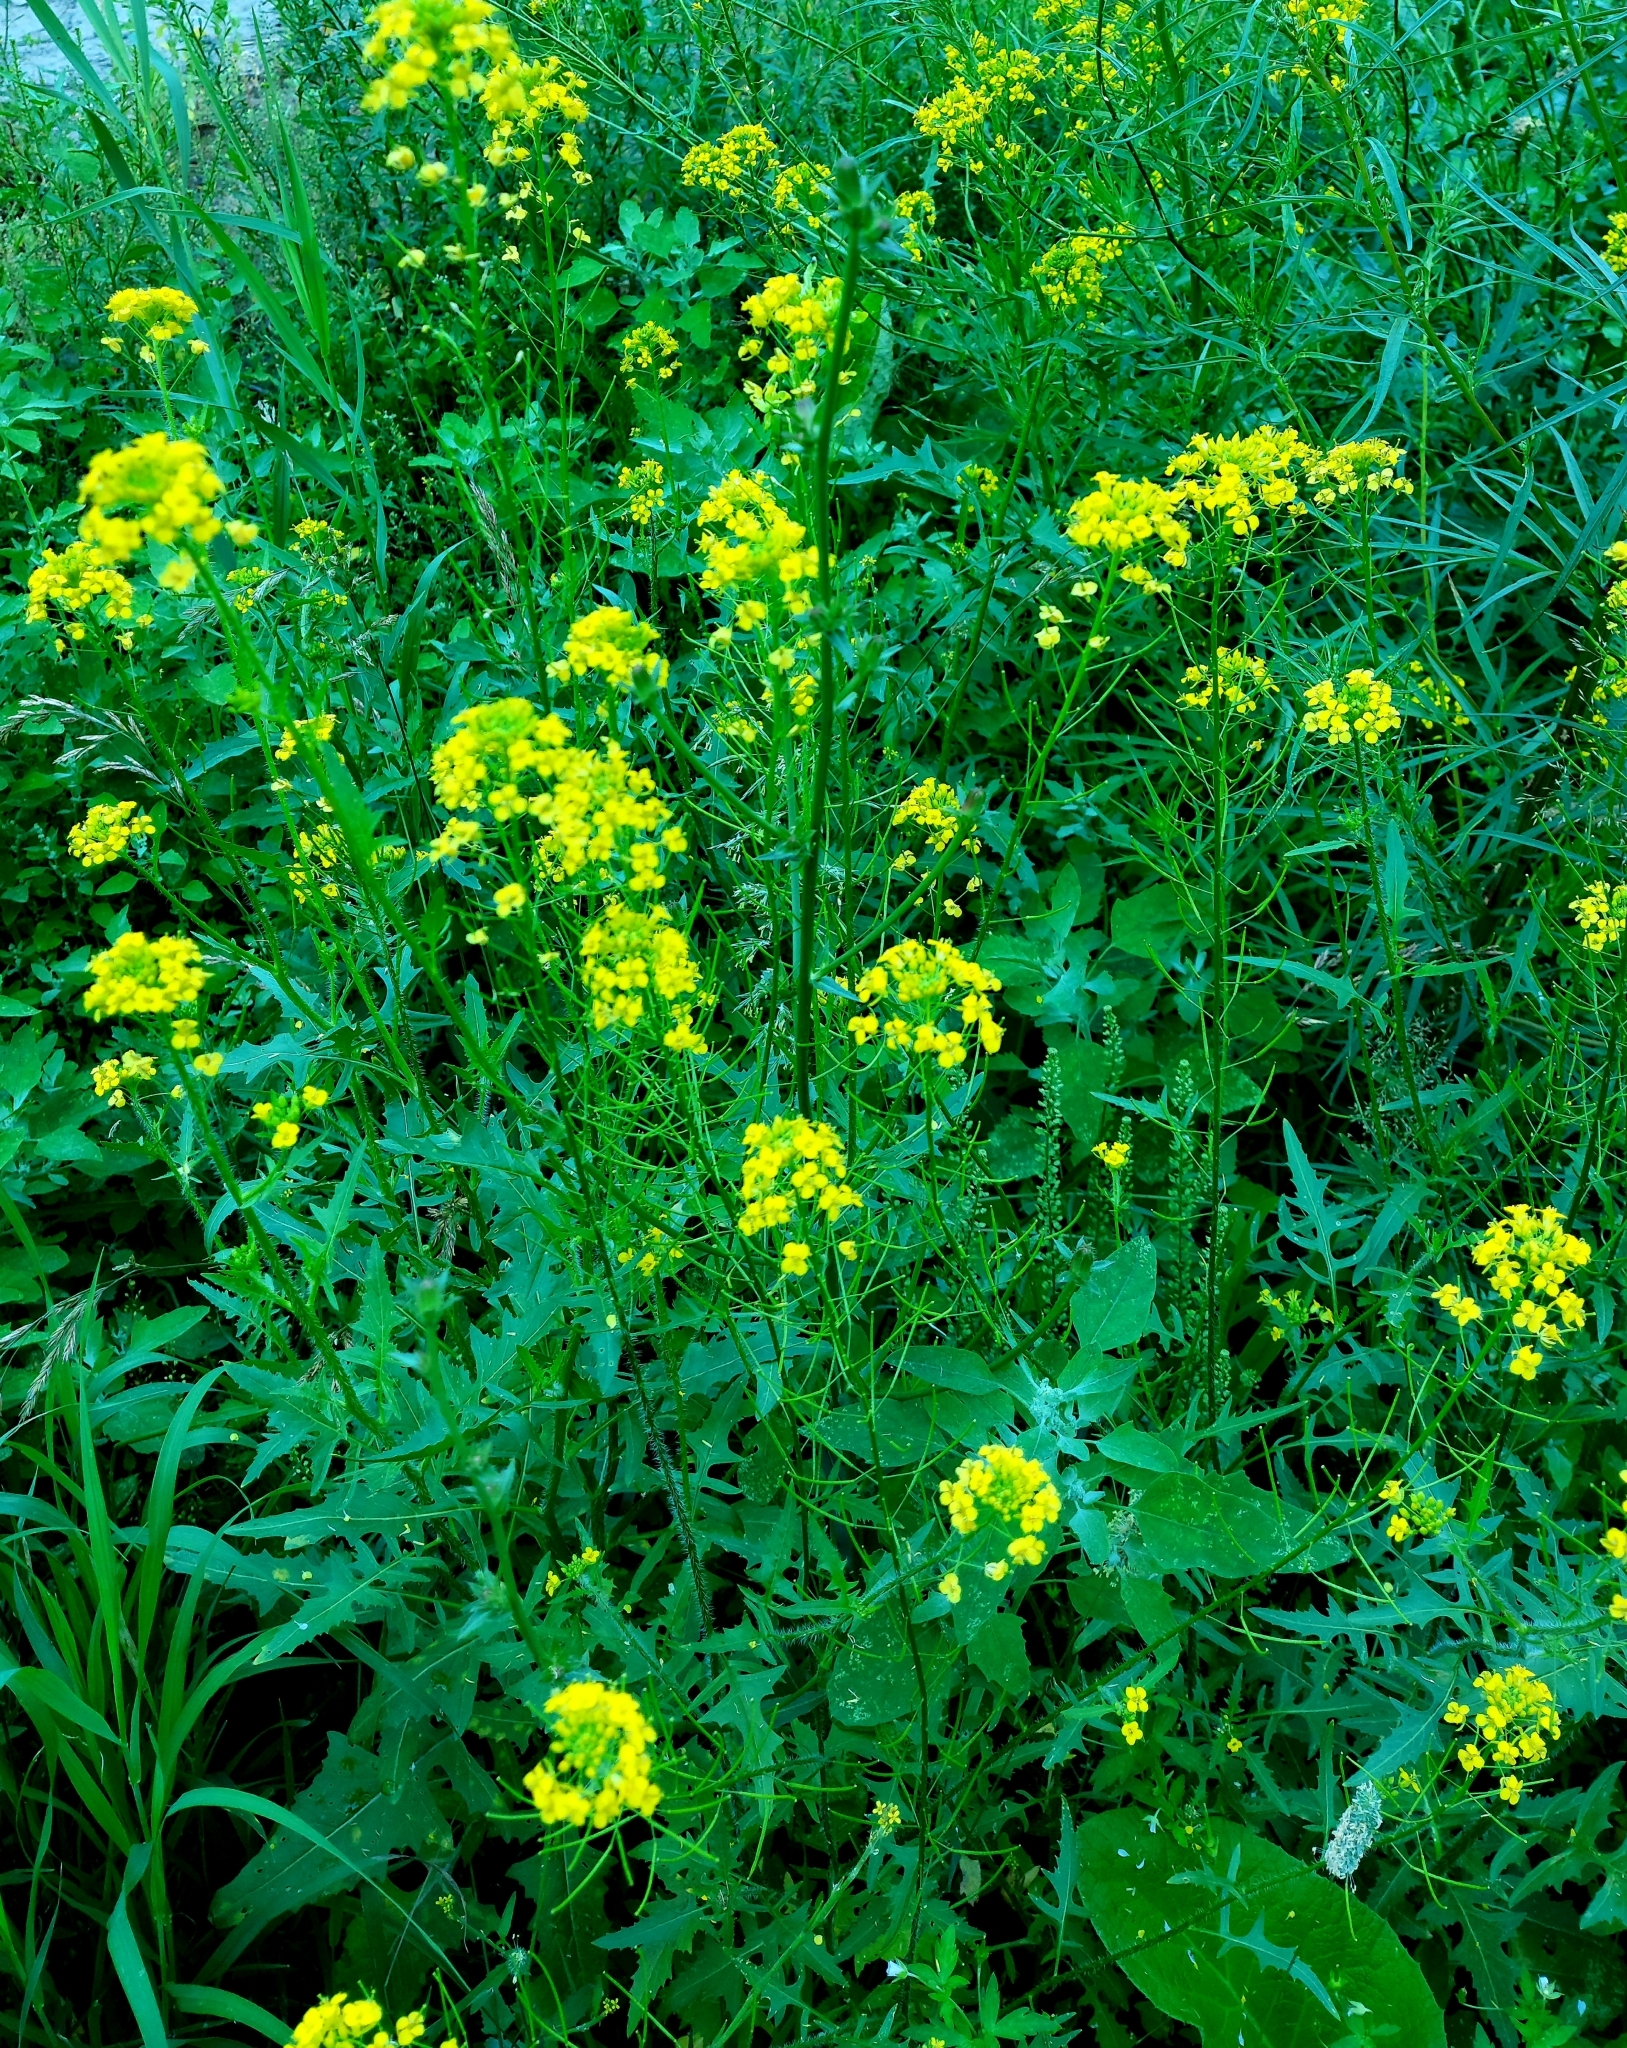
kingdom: Plantae
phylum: Tracheophyta
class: Magnoliopsida
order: Brassicales
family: Brassicaceae
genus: Sisymbrium
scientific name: Sisymbrium loeselii
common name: False london-rocket
